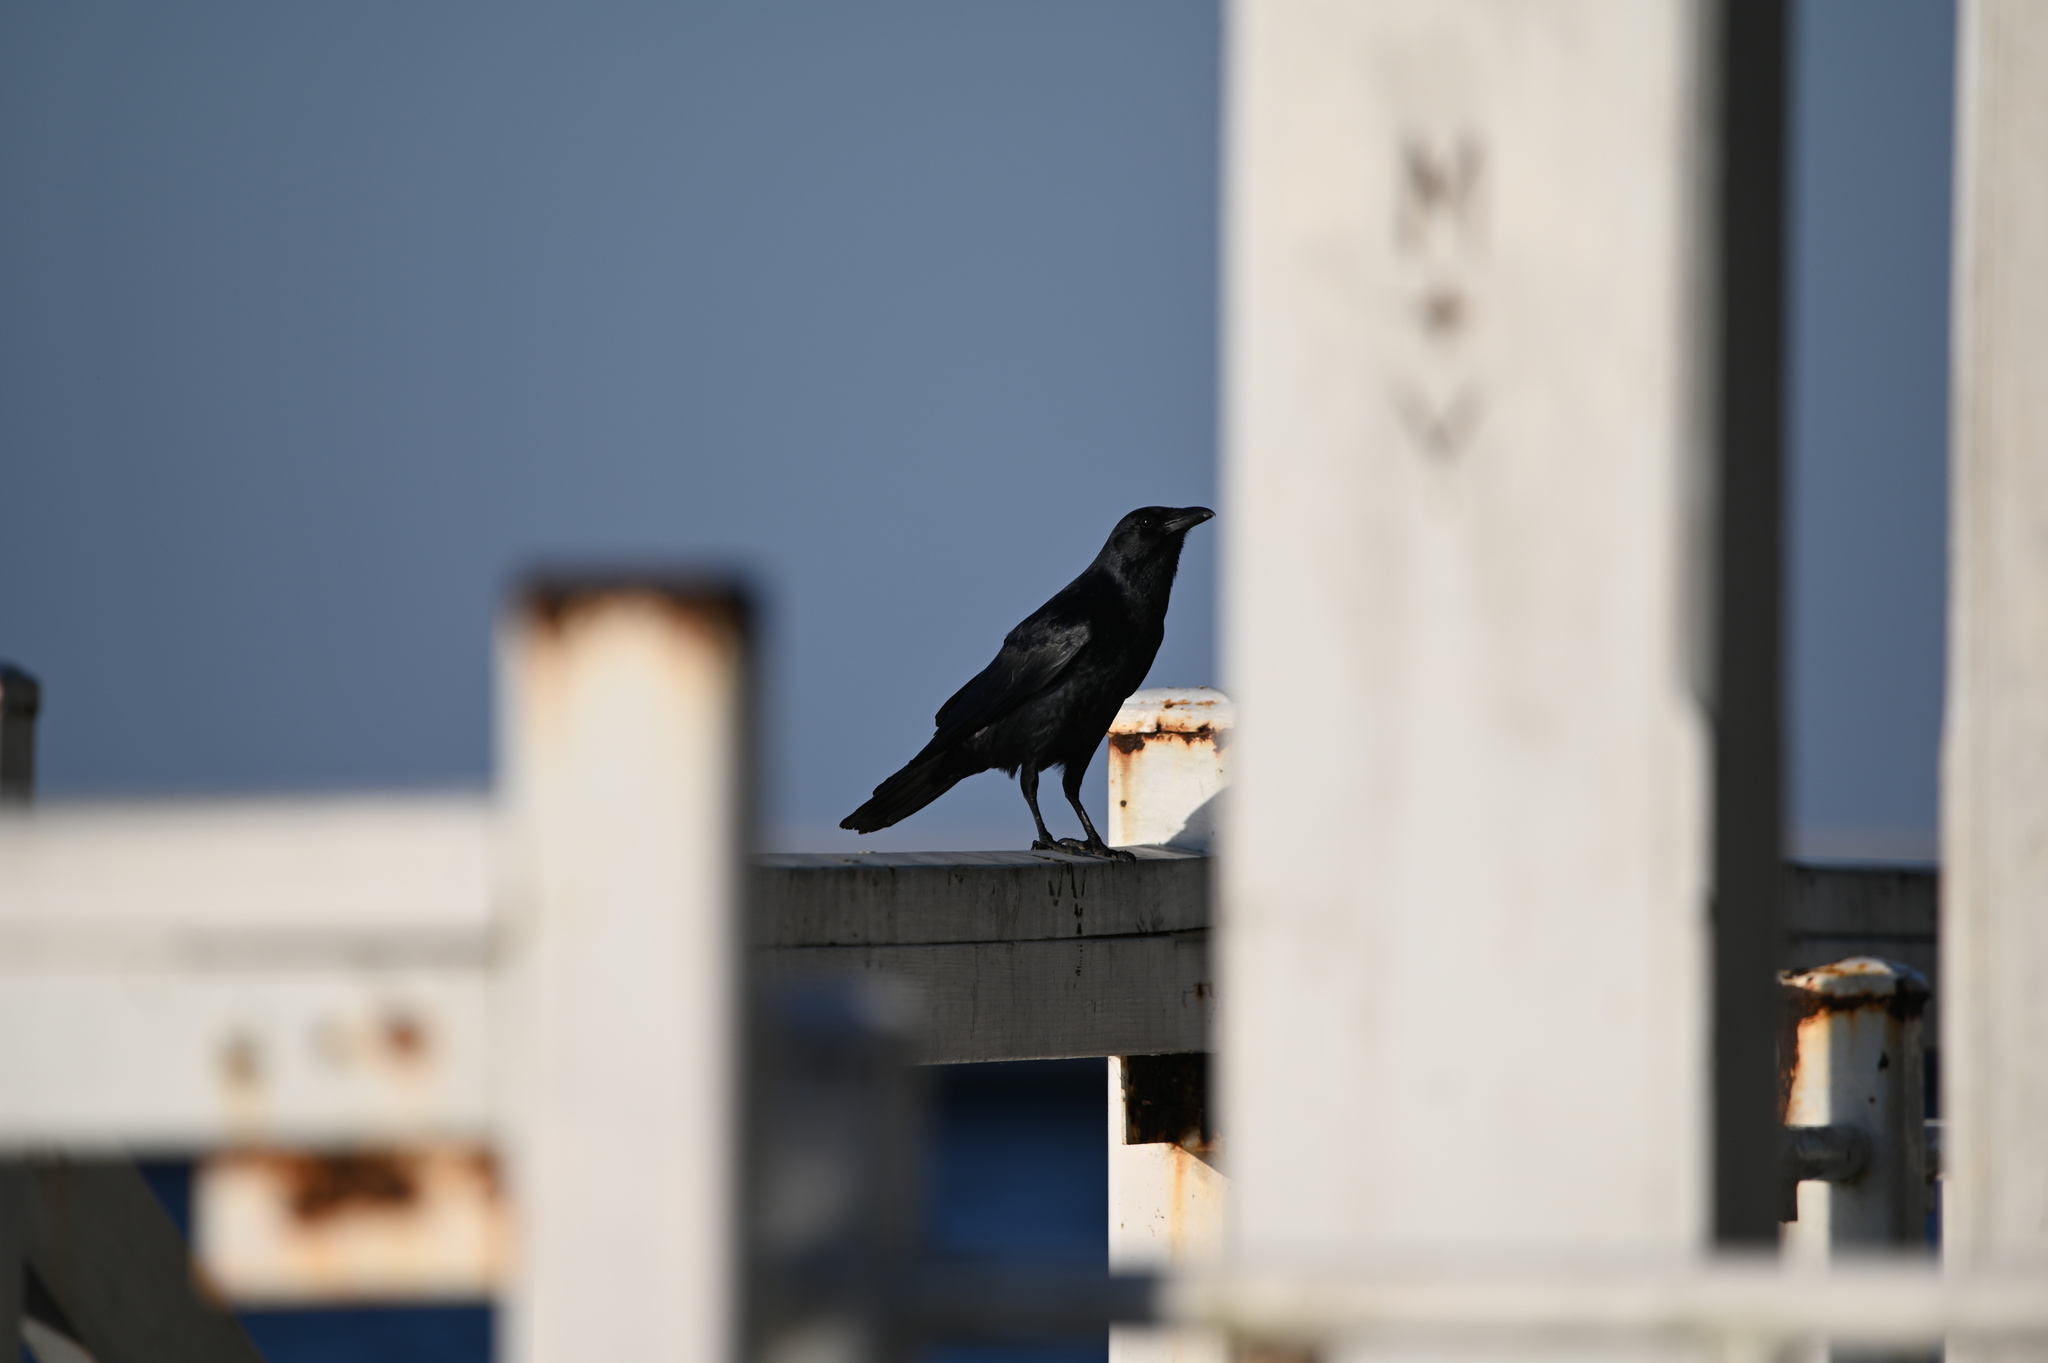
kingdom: Animalia
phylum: Chordata
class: Aves
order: Passeriformes
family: Corvidae
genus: Corvus
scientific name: Corvus ossifragus
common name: Fish crow
